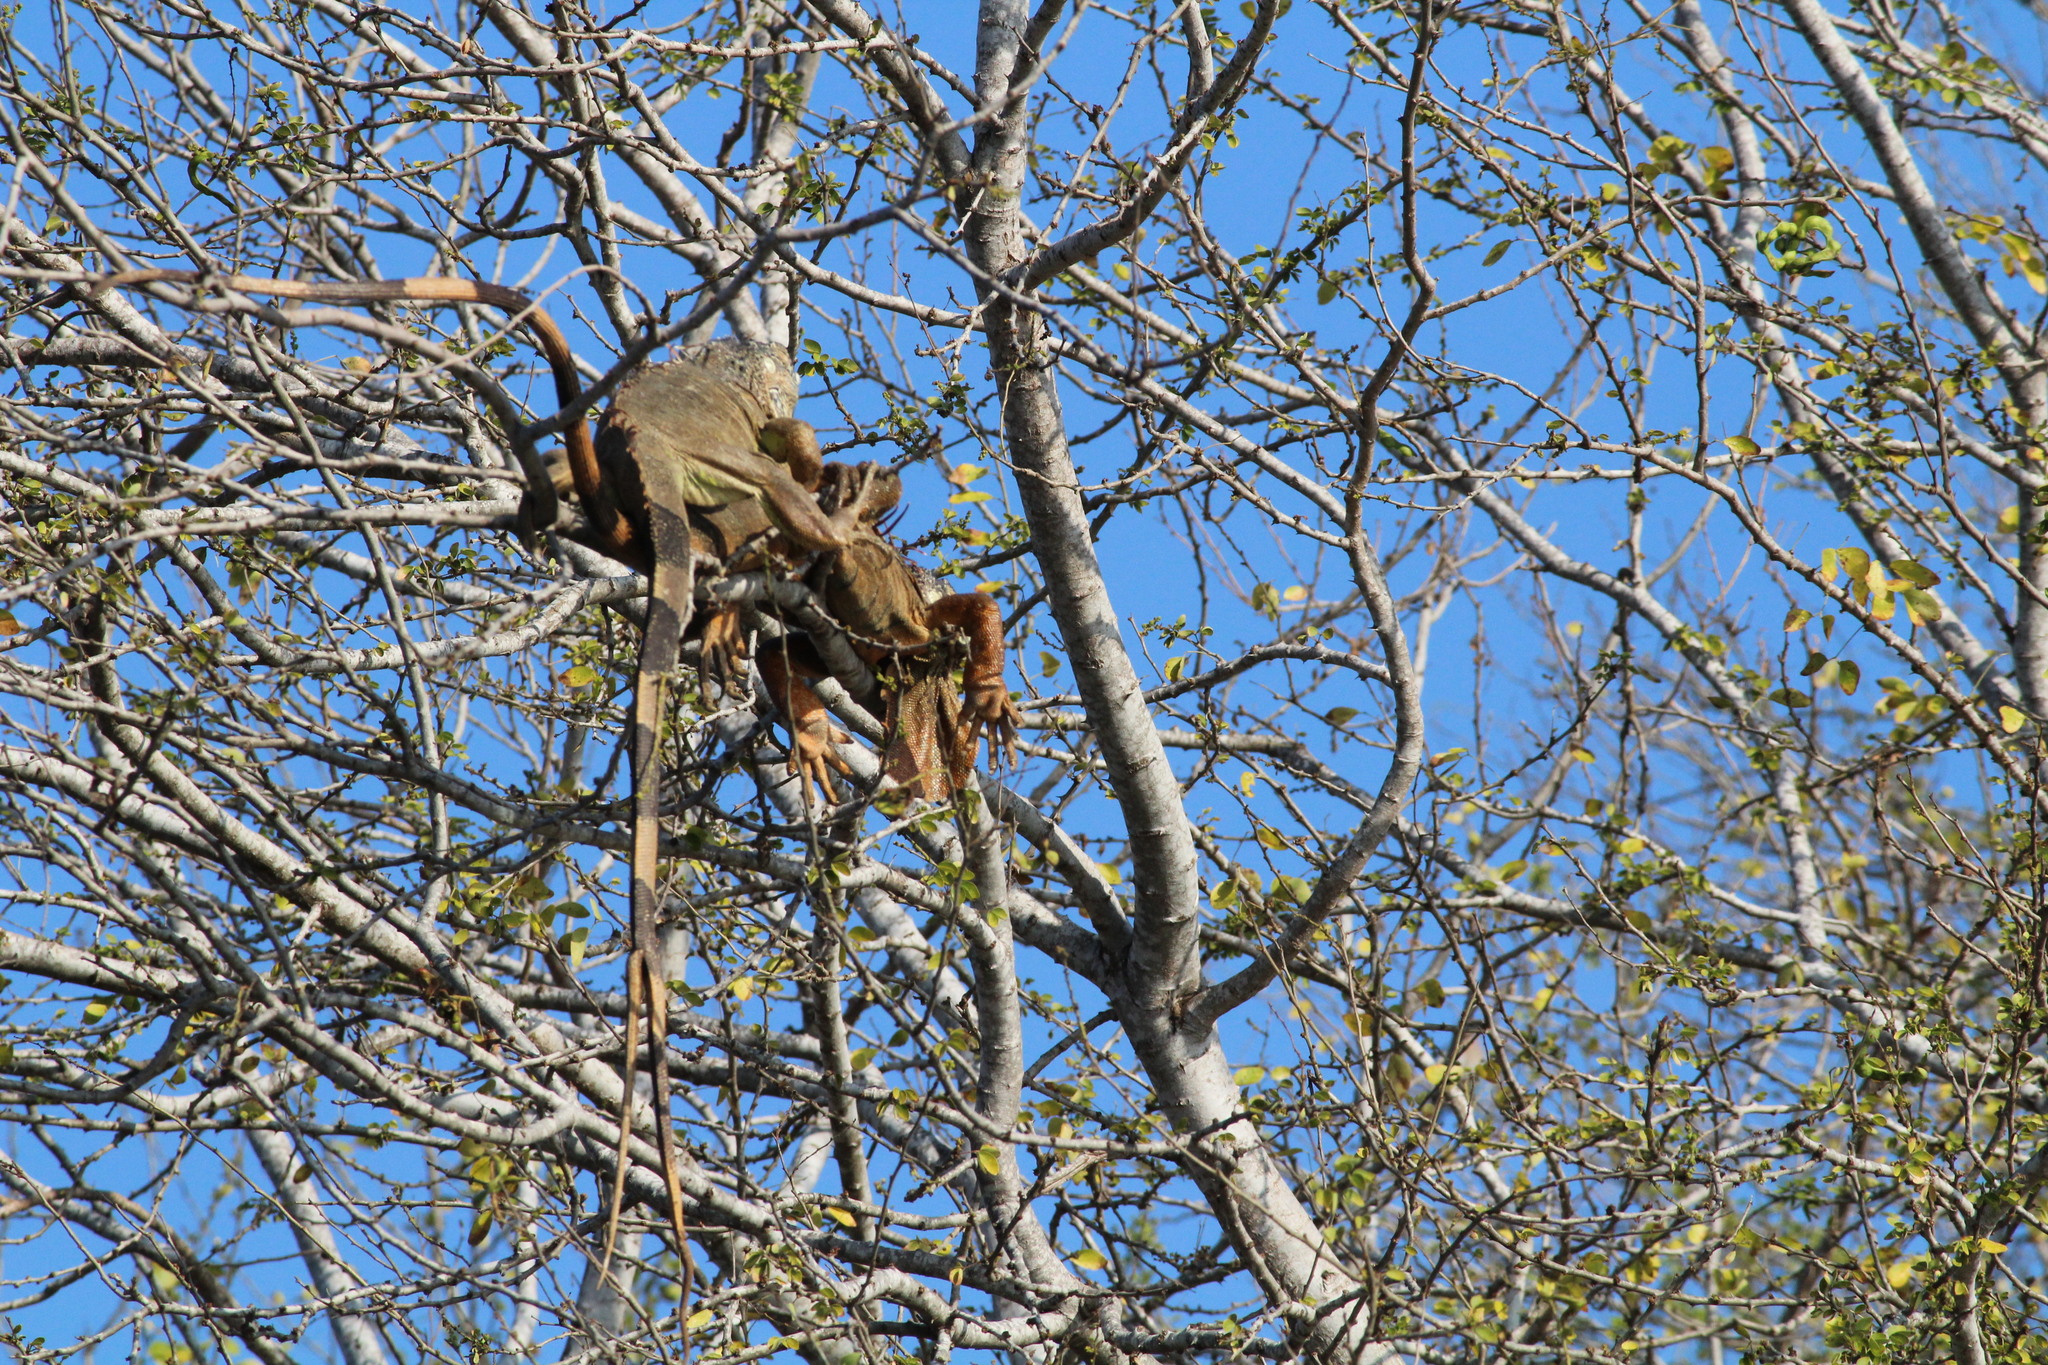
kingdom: Animalia
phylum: Chordata
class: Squamata
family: Iguanidae
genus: Iguana
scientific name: Iguana iguana
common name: Green iguana
